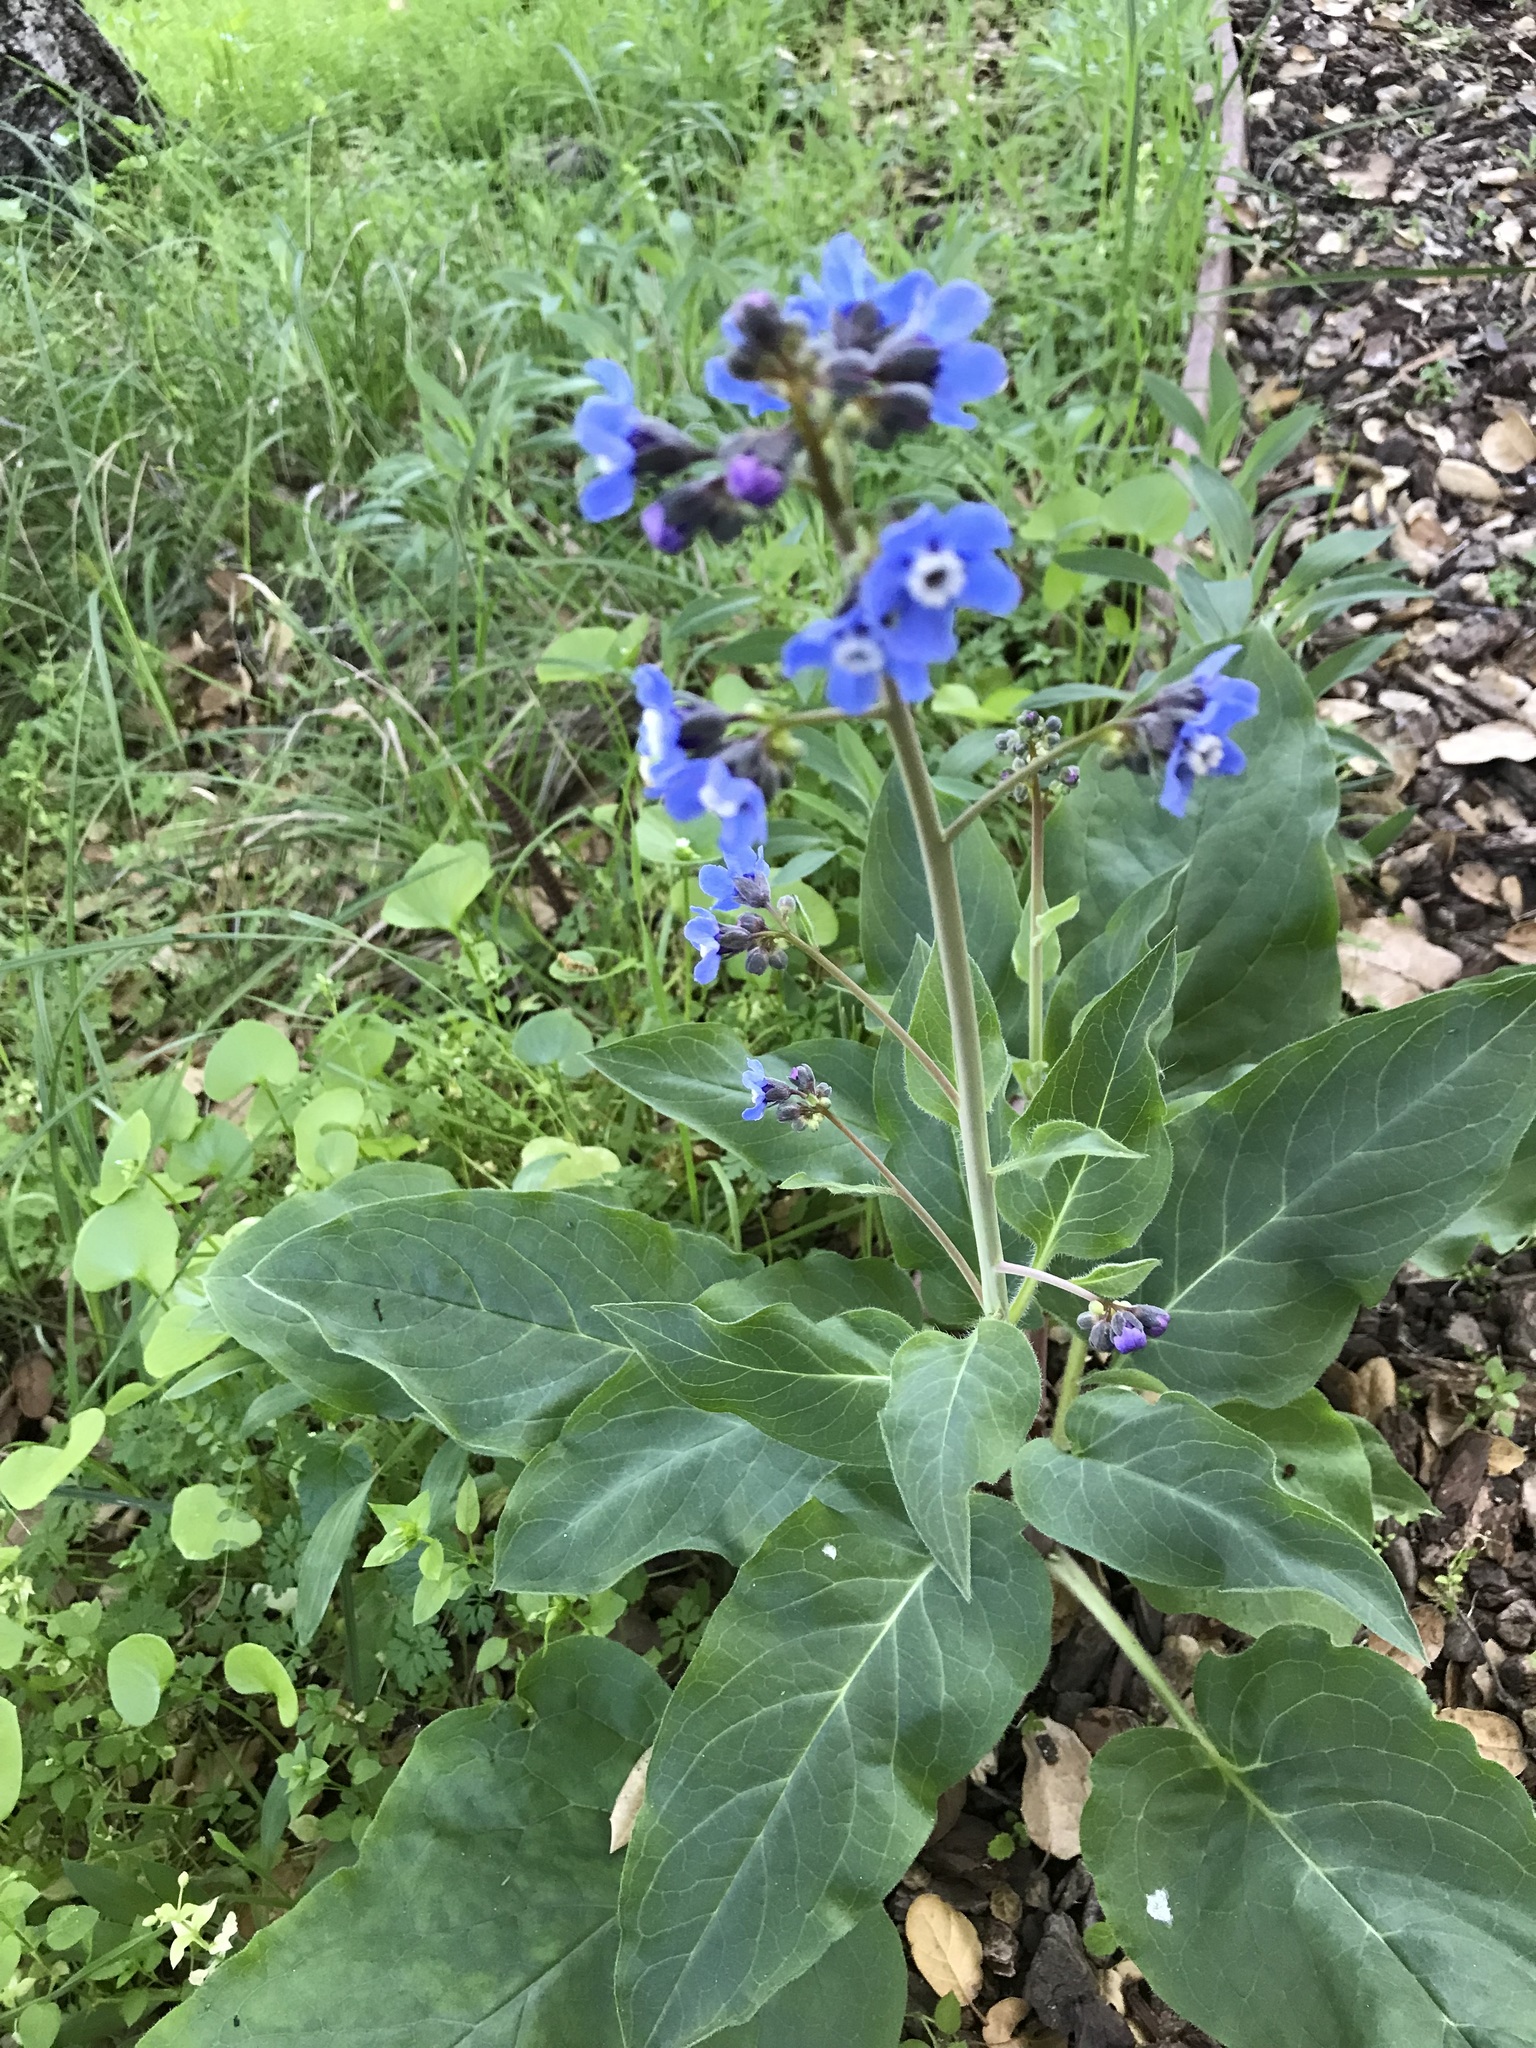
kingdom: Plantae
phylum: Tracheophyta
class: Magnoliopsida
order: Boraginales
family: Boraginaceae
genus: Adelinia
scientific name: Adelinia grande
